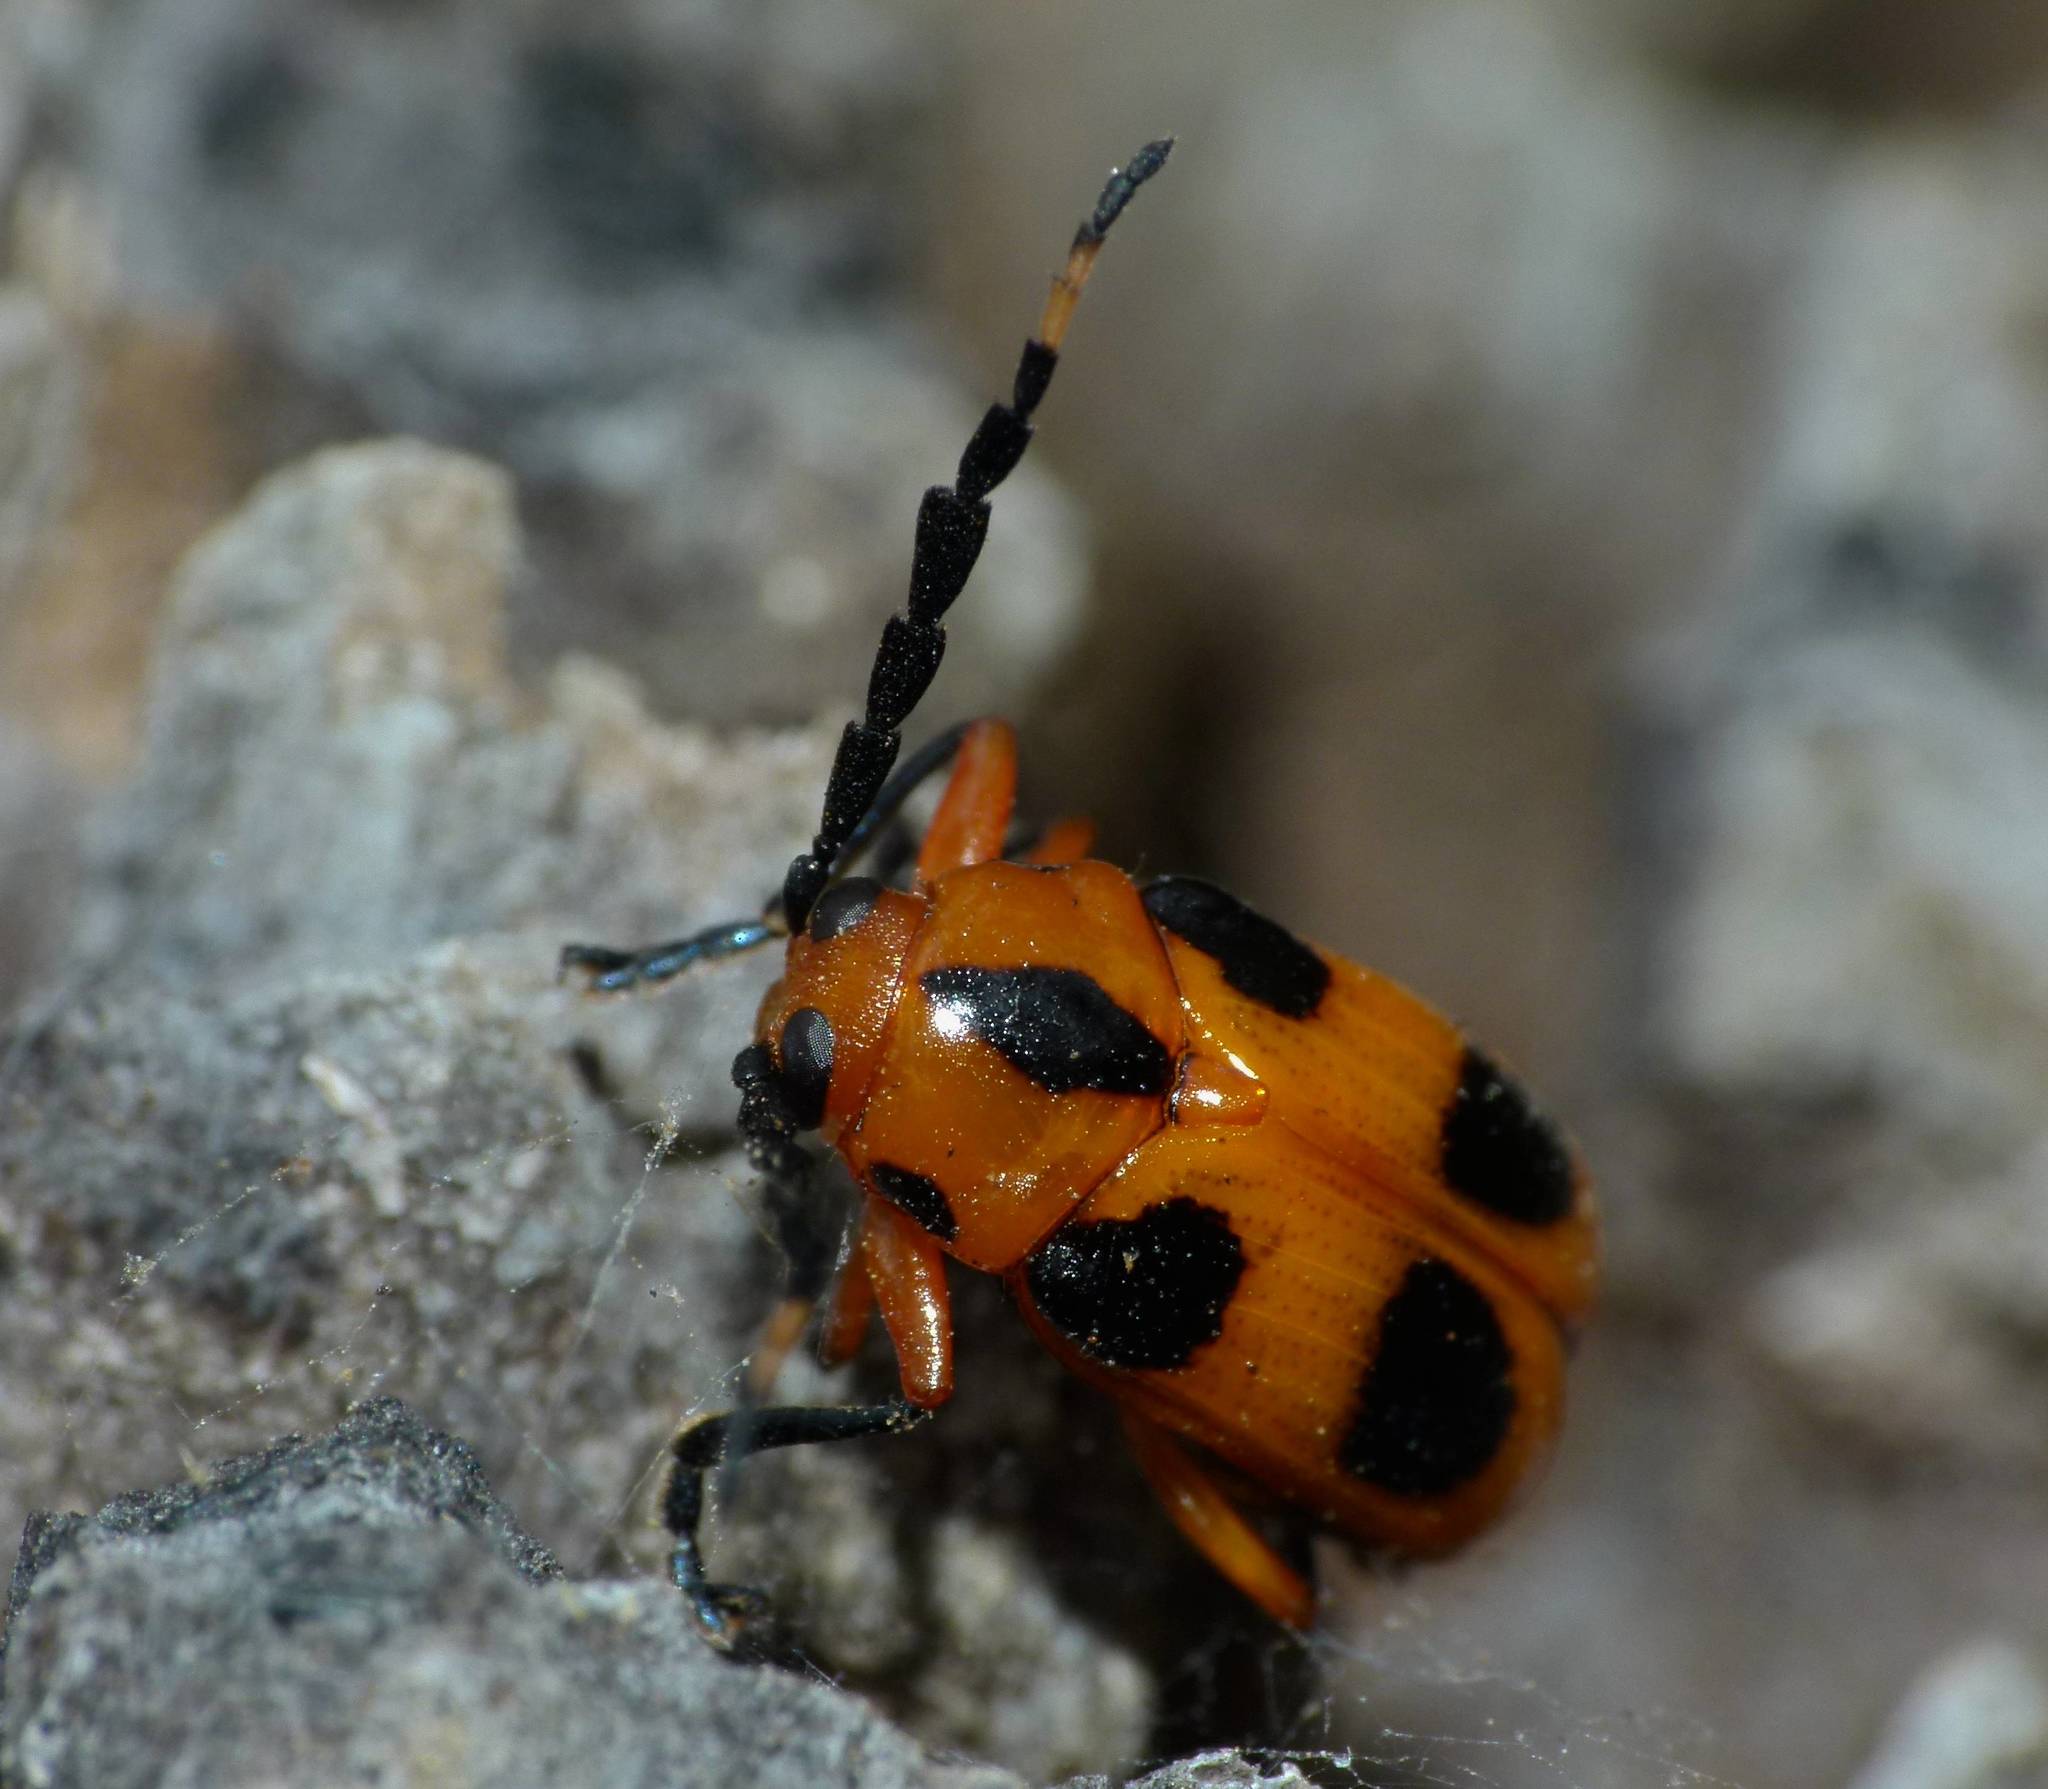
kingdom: Animalia
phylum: Arthropoda
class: Insecta
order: Coleoptera
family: Chrysomelidae
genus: Aporocera
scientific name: Aporocera
